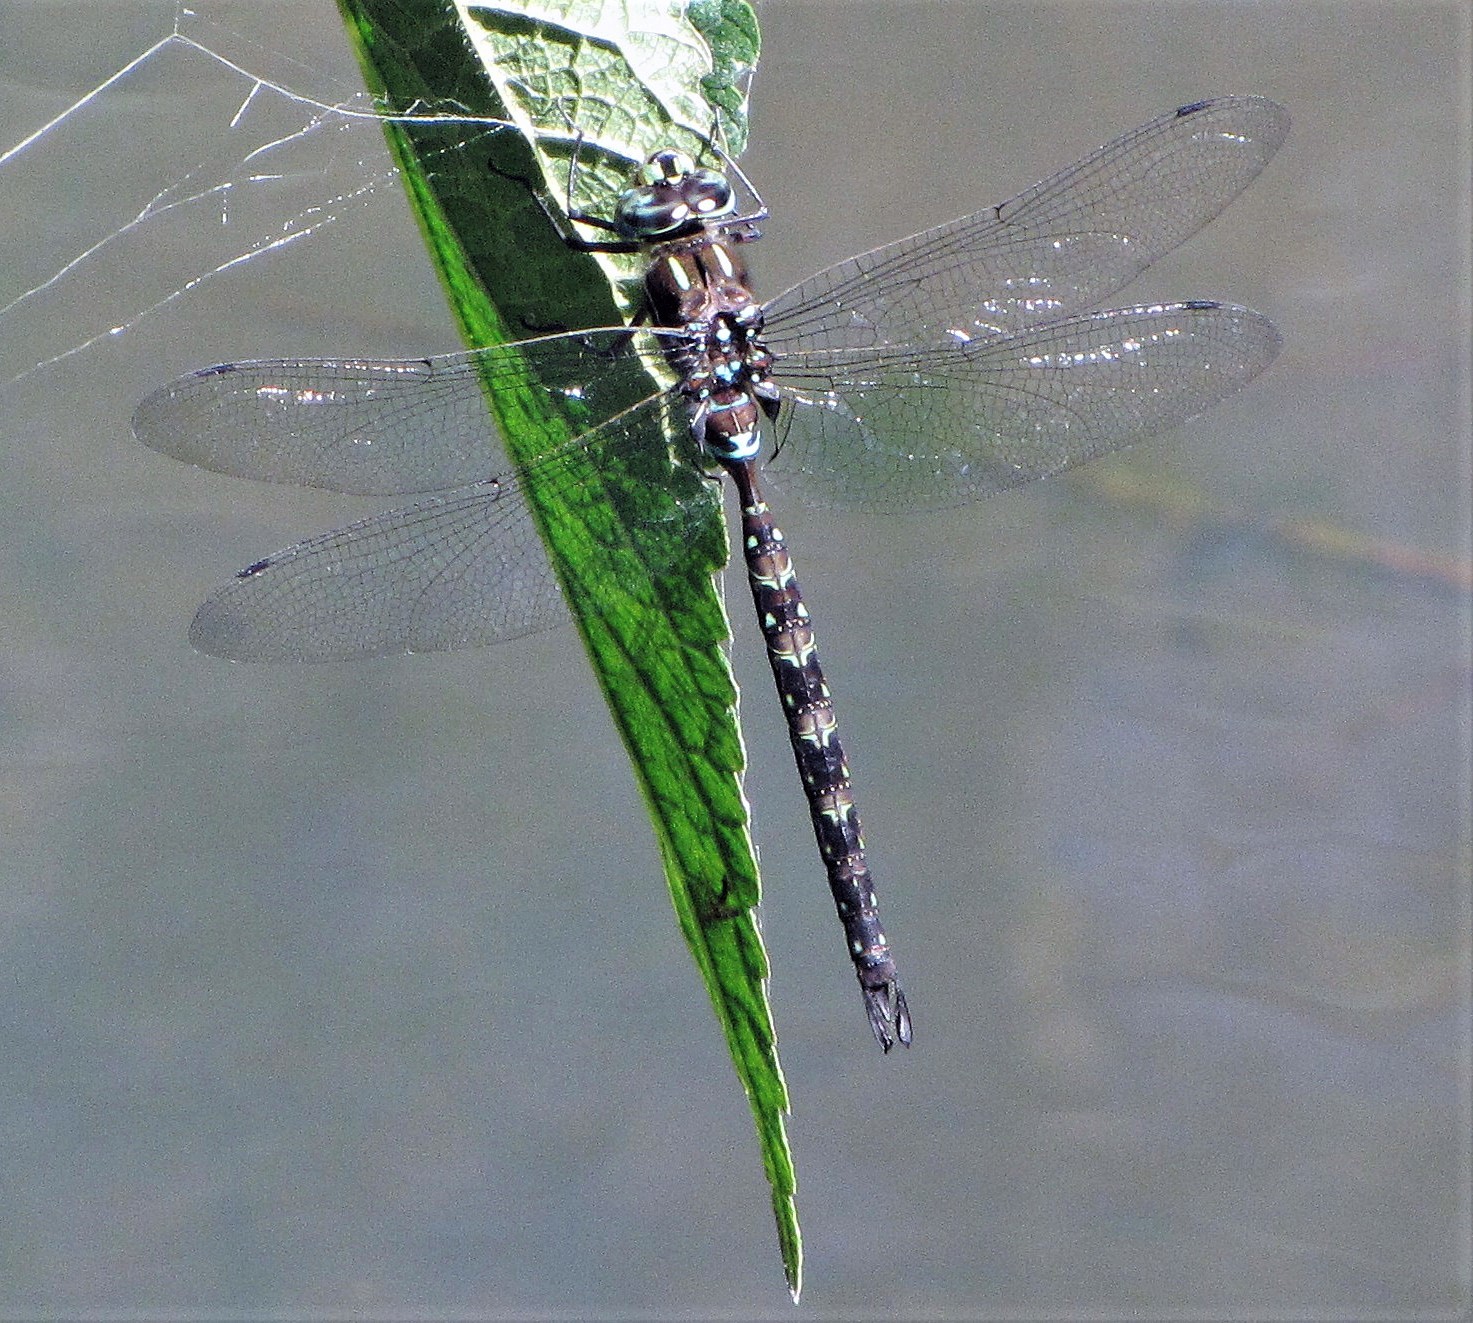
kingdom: Animalia
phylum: Arthropoda
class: Insecta
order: Odonata
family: Aeshnidae
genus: Rhionaeschna
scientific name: Rhionaeschna punctata
